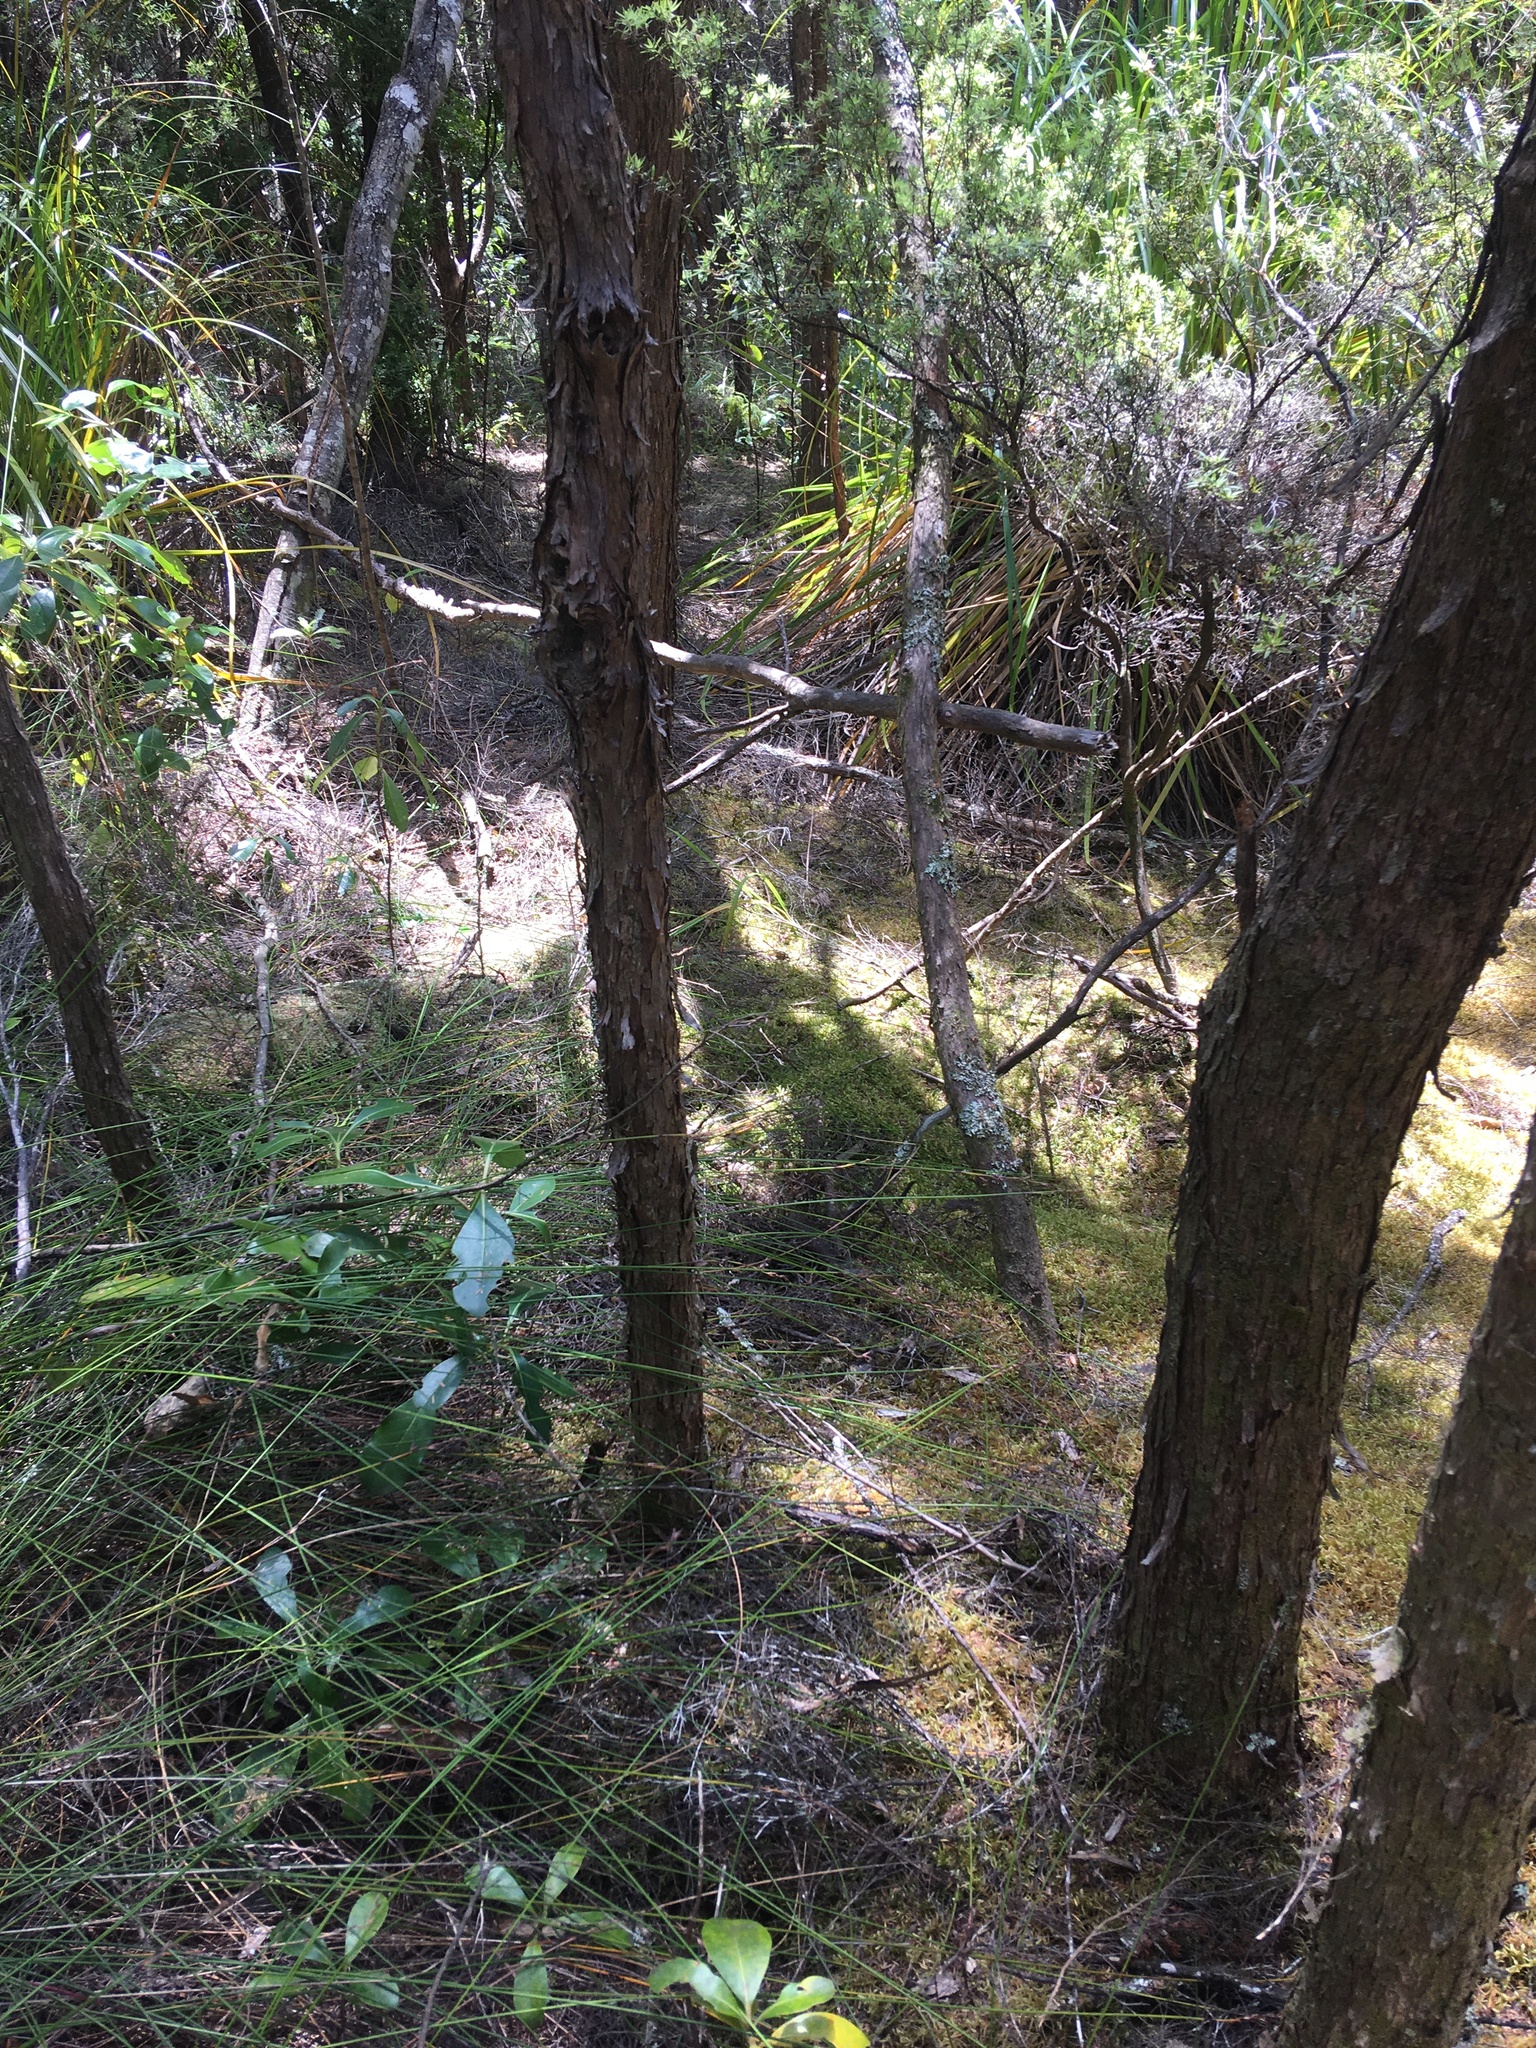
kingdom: Plantae
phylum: Tracheophyta
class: Magnoliopsida
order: Ericales
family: Ericaceae
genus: Leucopogon
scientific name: Leucopogon fasciculatus
